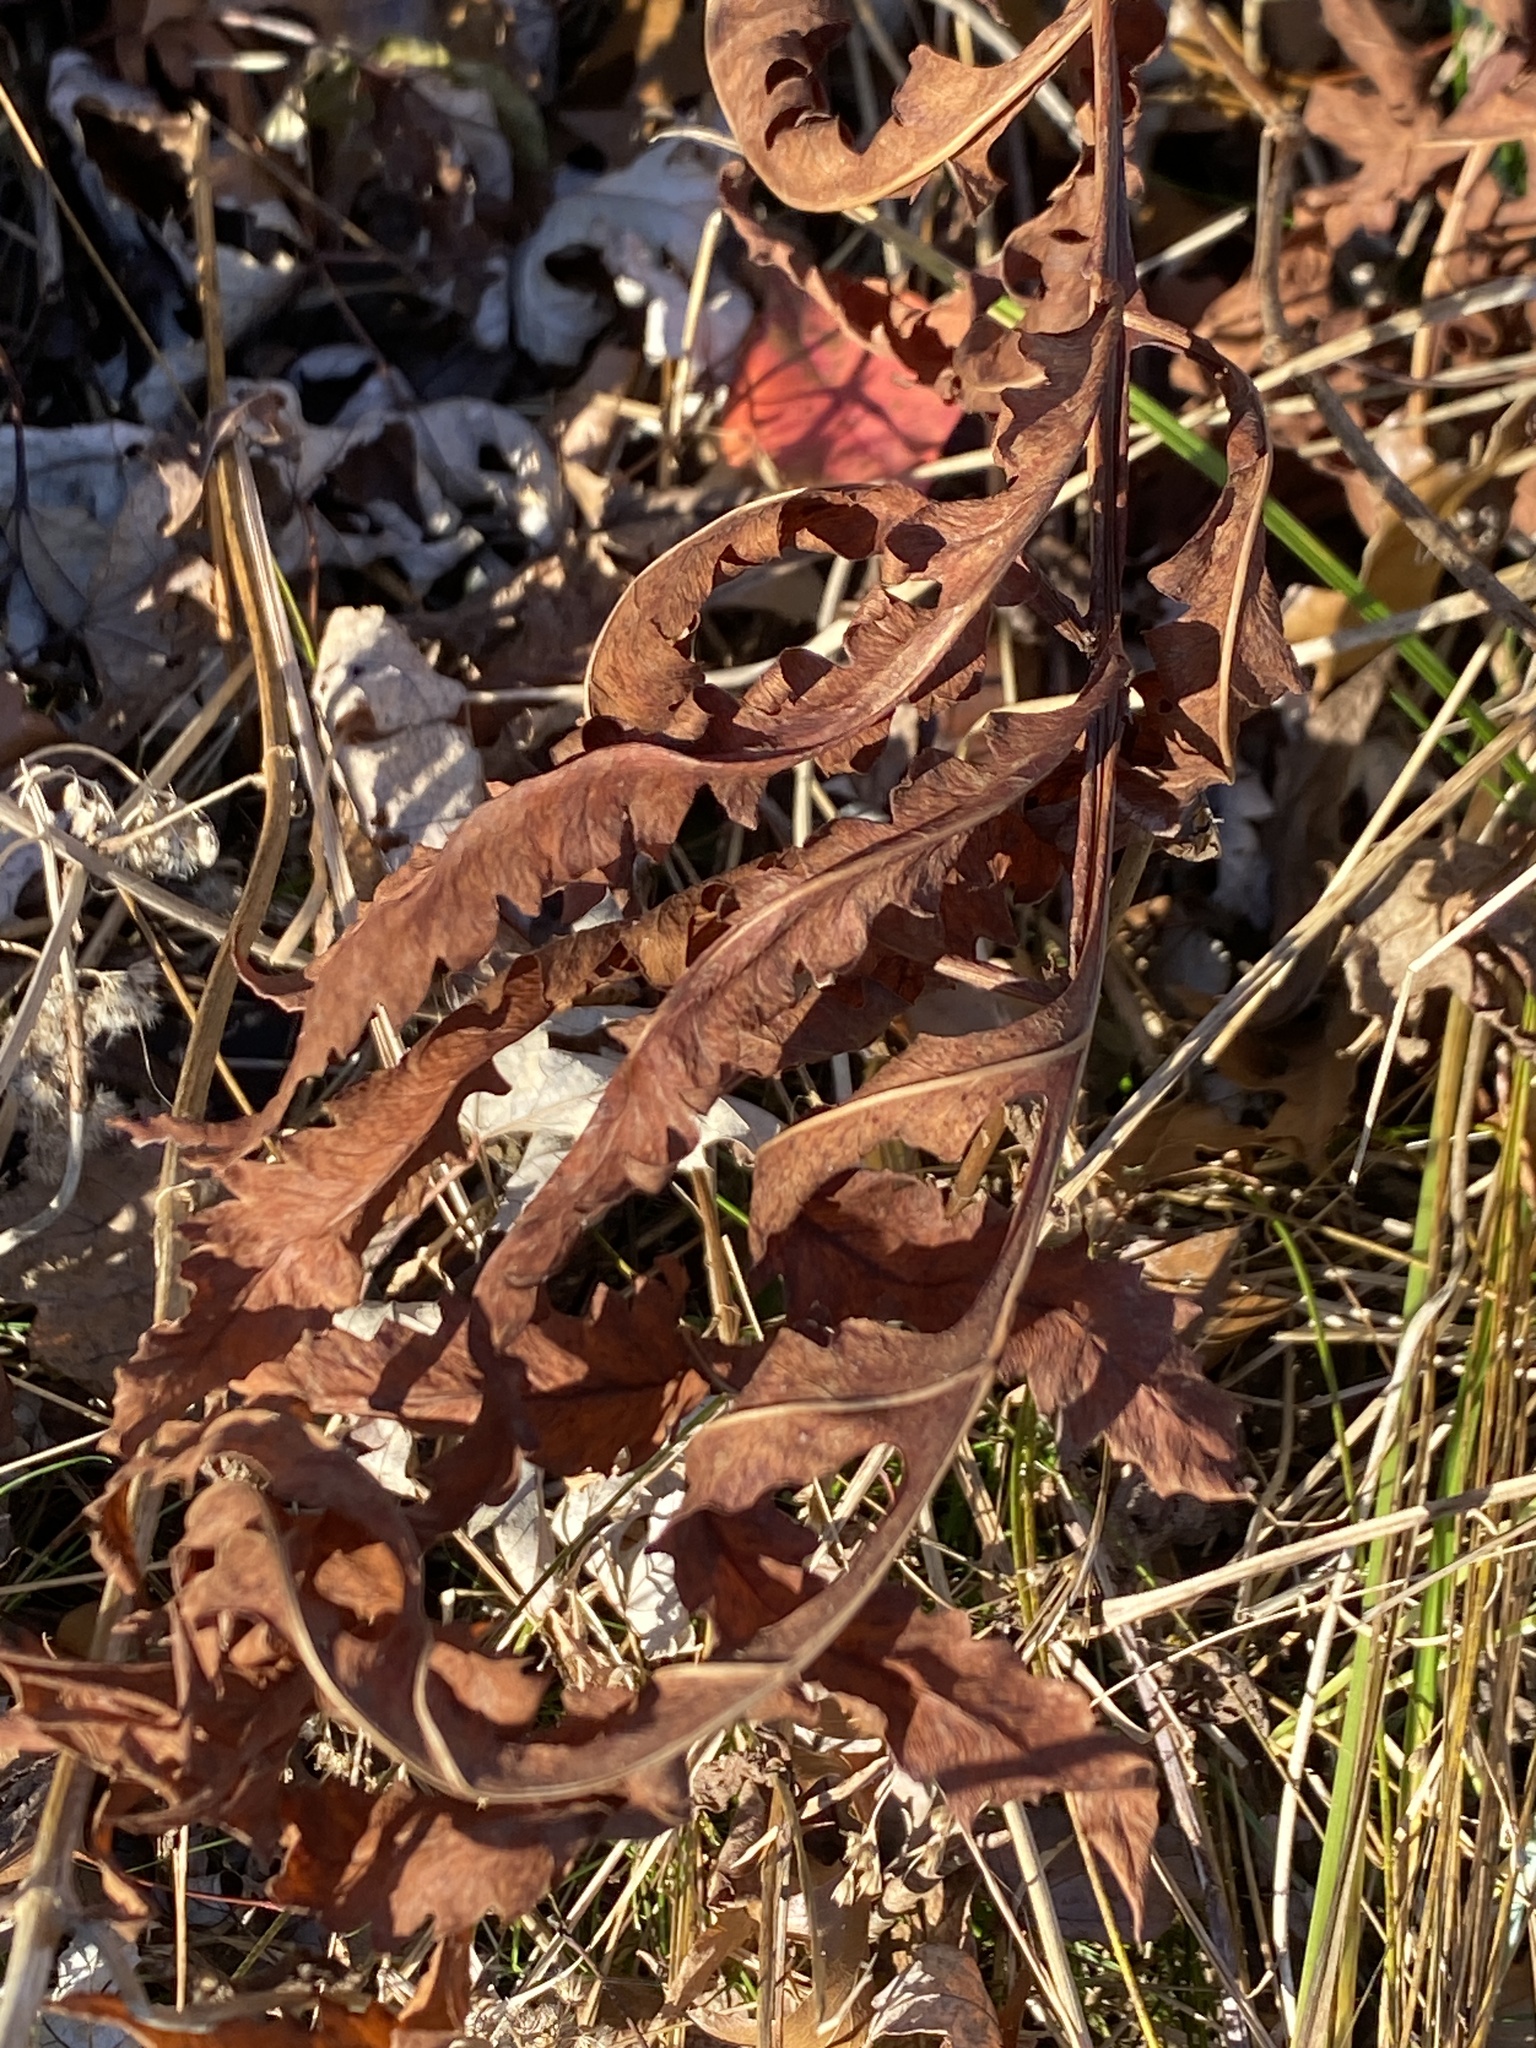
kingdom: Plantae
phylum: Tracheophyta
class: Polypodiopsida
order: Polypodiales
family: Onocleaceae
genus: Onoclea
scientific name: Onoclea sensibilis
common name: Sensitive fern
